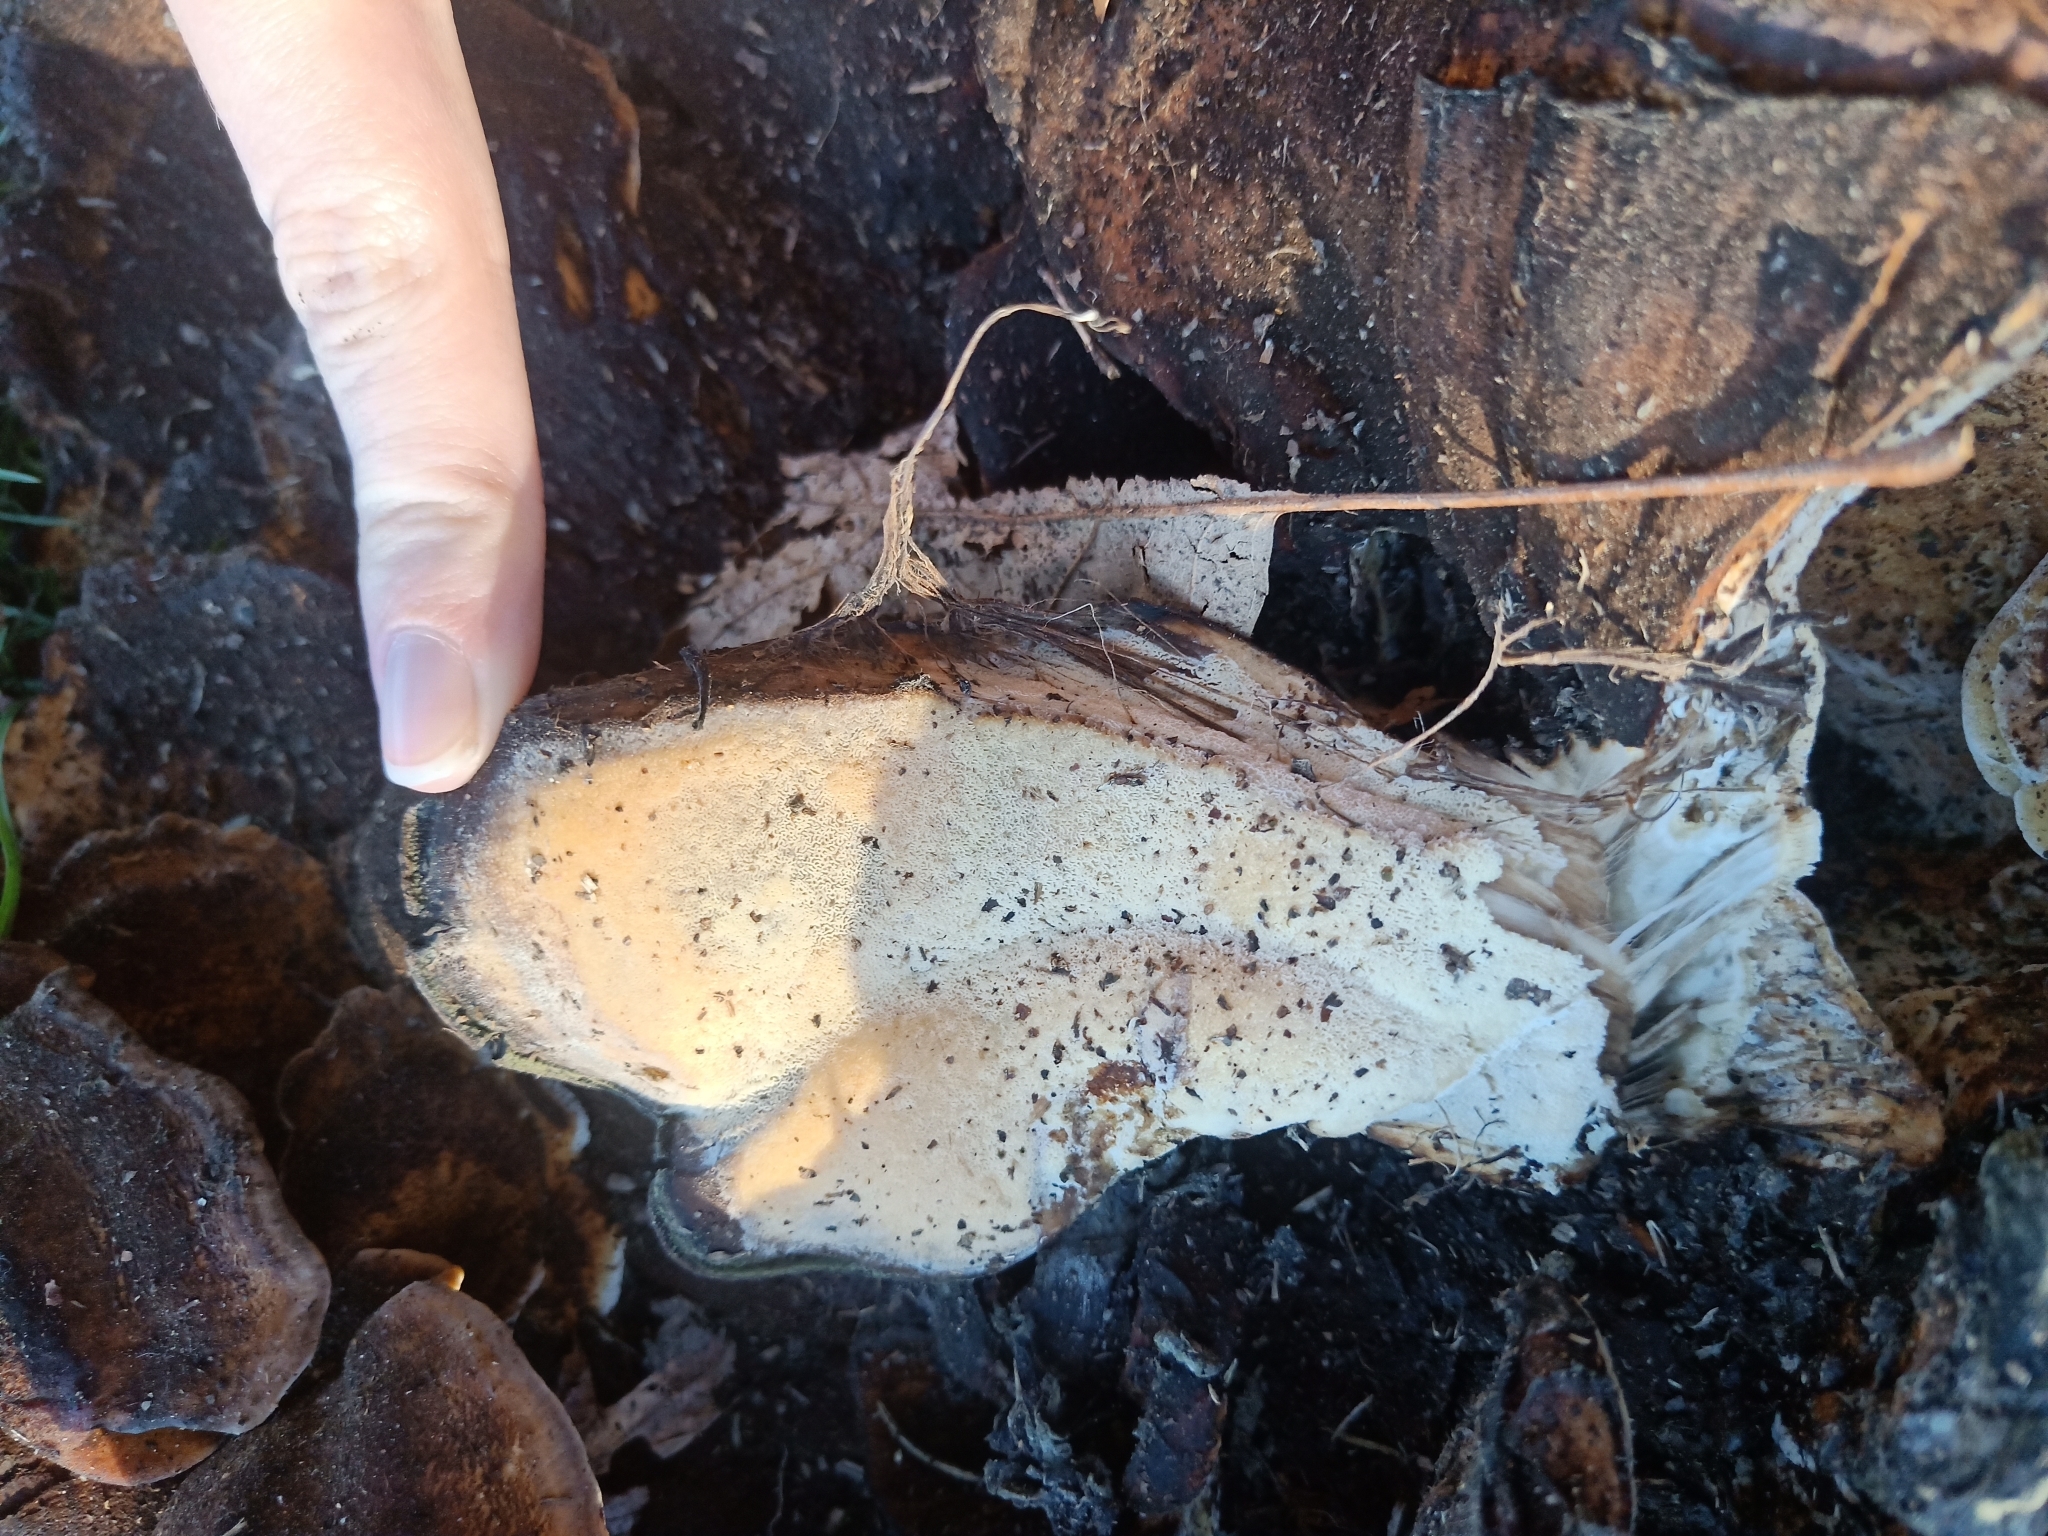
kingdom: Fungi
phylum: Basidiomycota
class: Agaricomycetes
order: Polyporales
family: Meripilaceae
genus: Meripilus
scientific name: Meripilus giganteus
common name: Giant polypore
